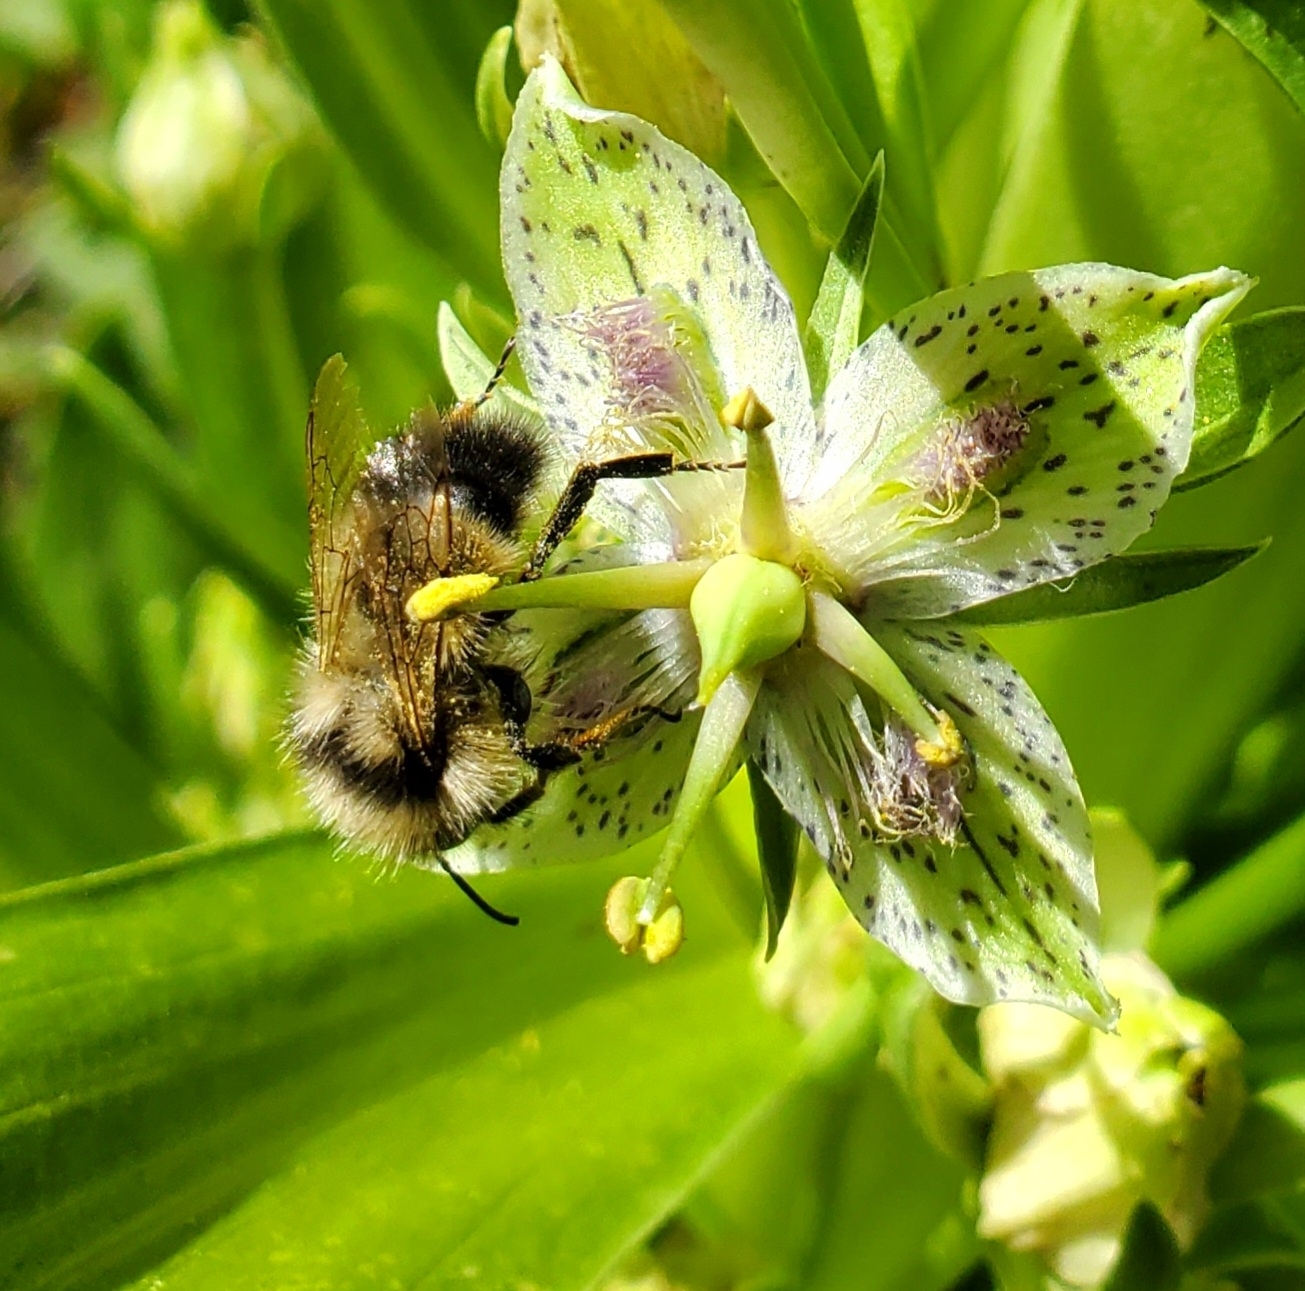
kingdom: Animalia
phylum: Arthropoda
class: Insecta
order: Hymenoptera
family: Apidae
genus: Bombus
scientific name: Bombus vancouverensis
